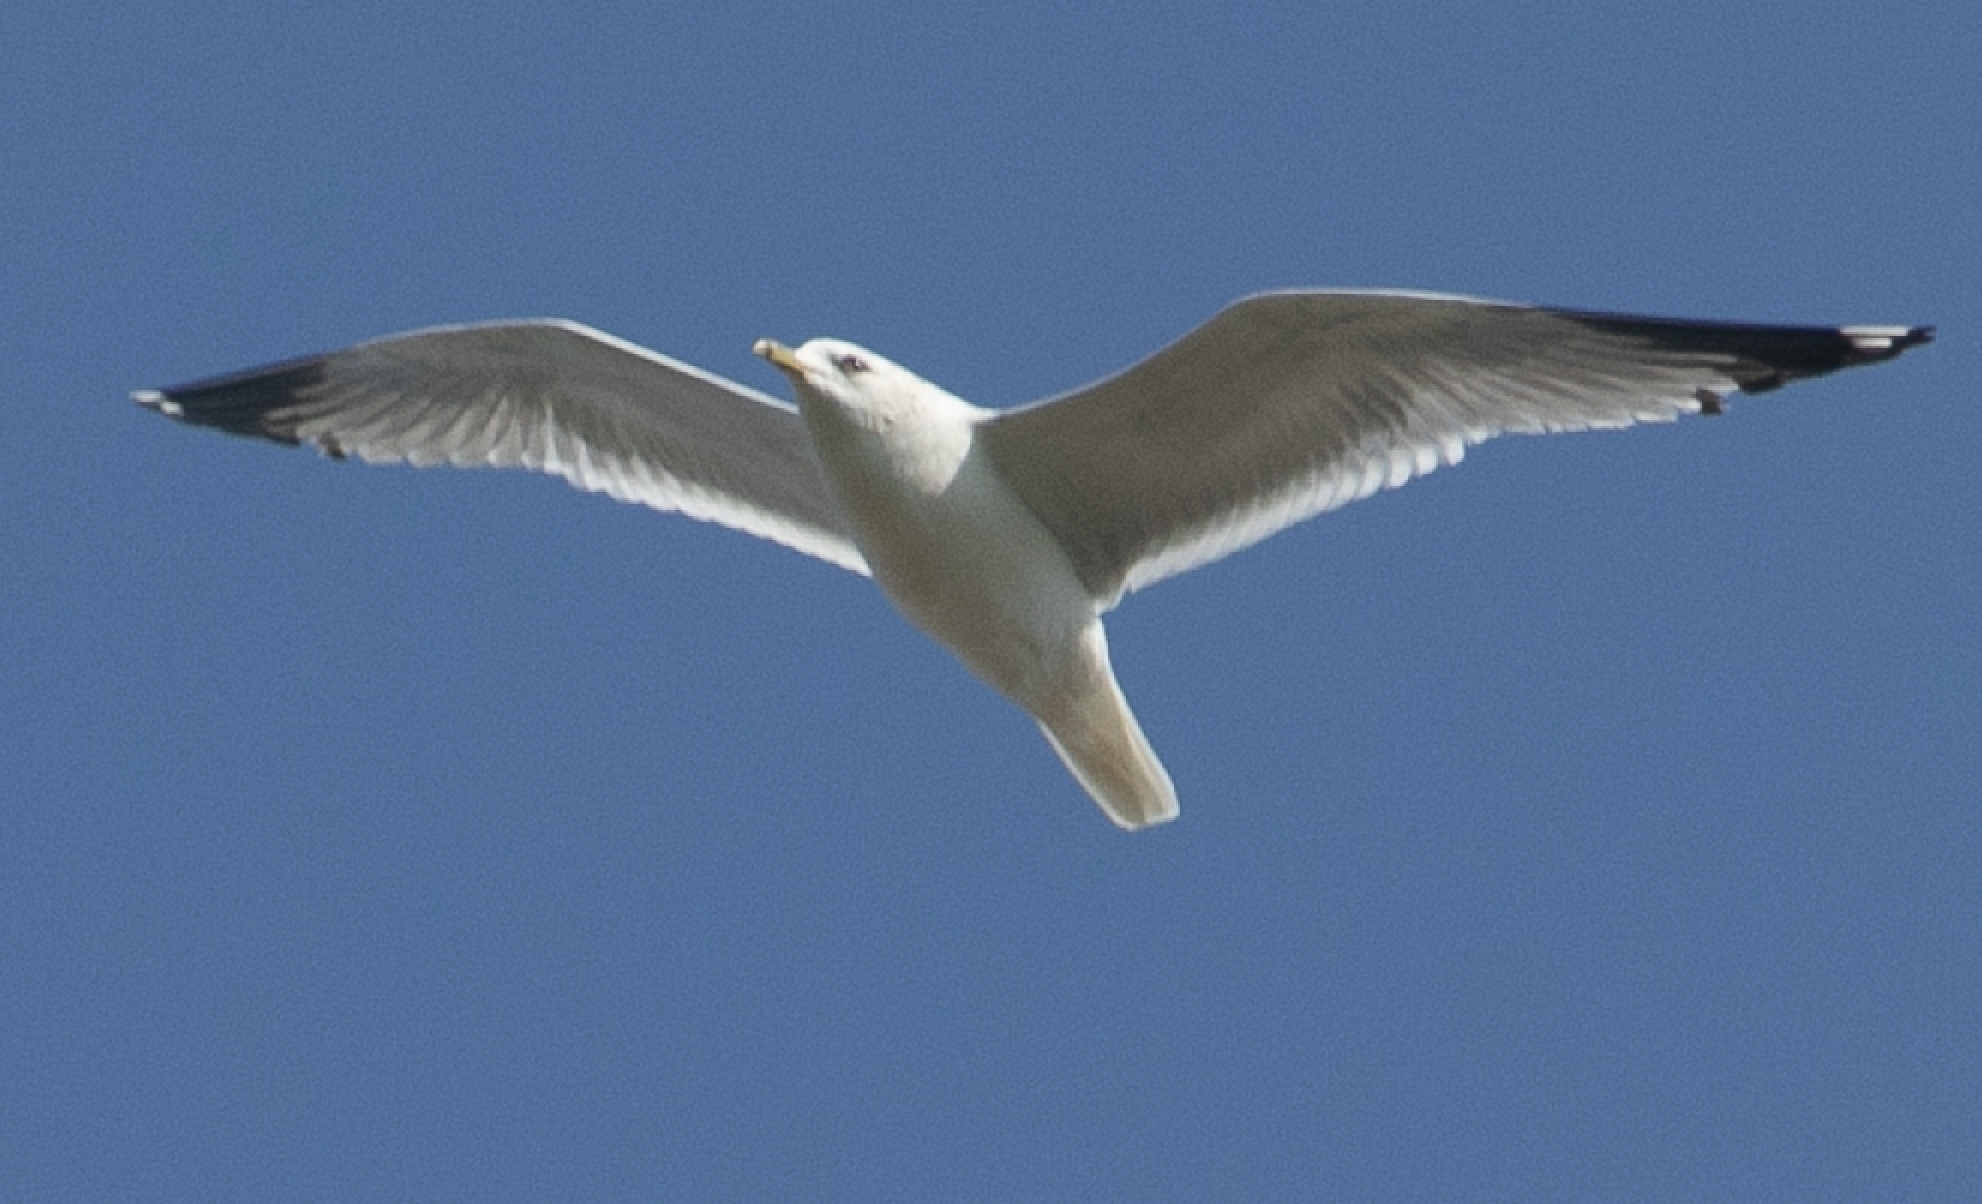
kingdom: Animalia
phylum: Chordata
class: Aves
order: Charadriiformes
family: Laridae
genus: Larus
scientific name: Larus canus
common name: Mew gull
